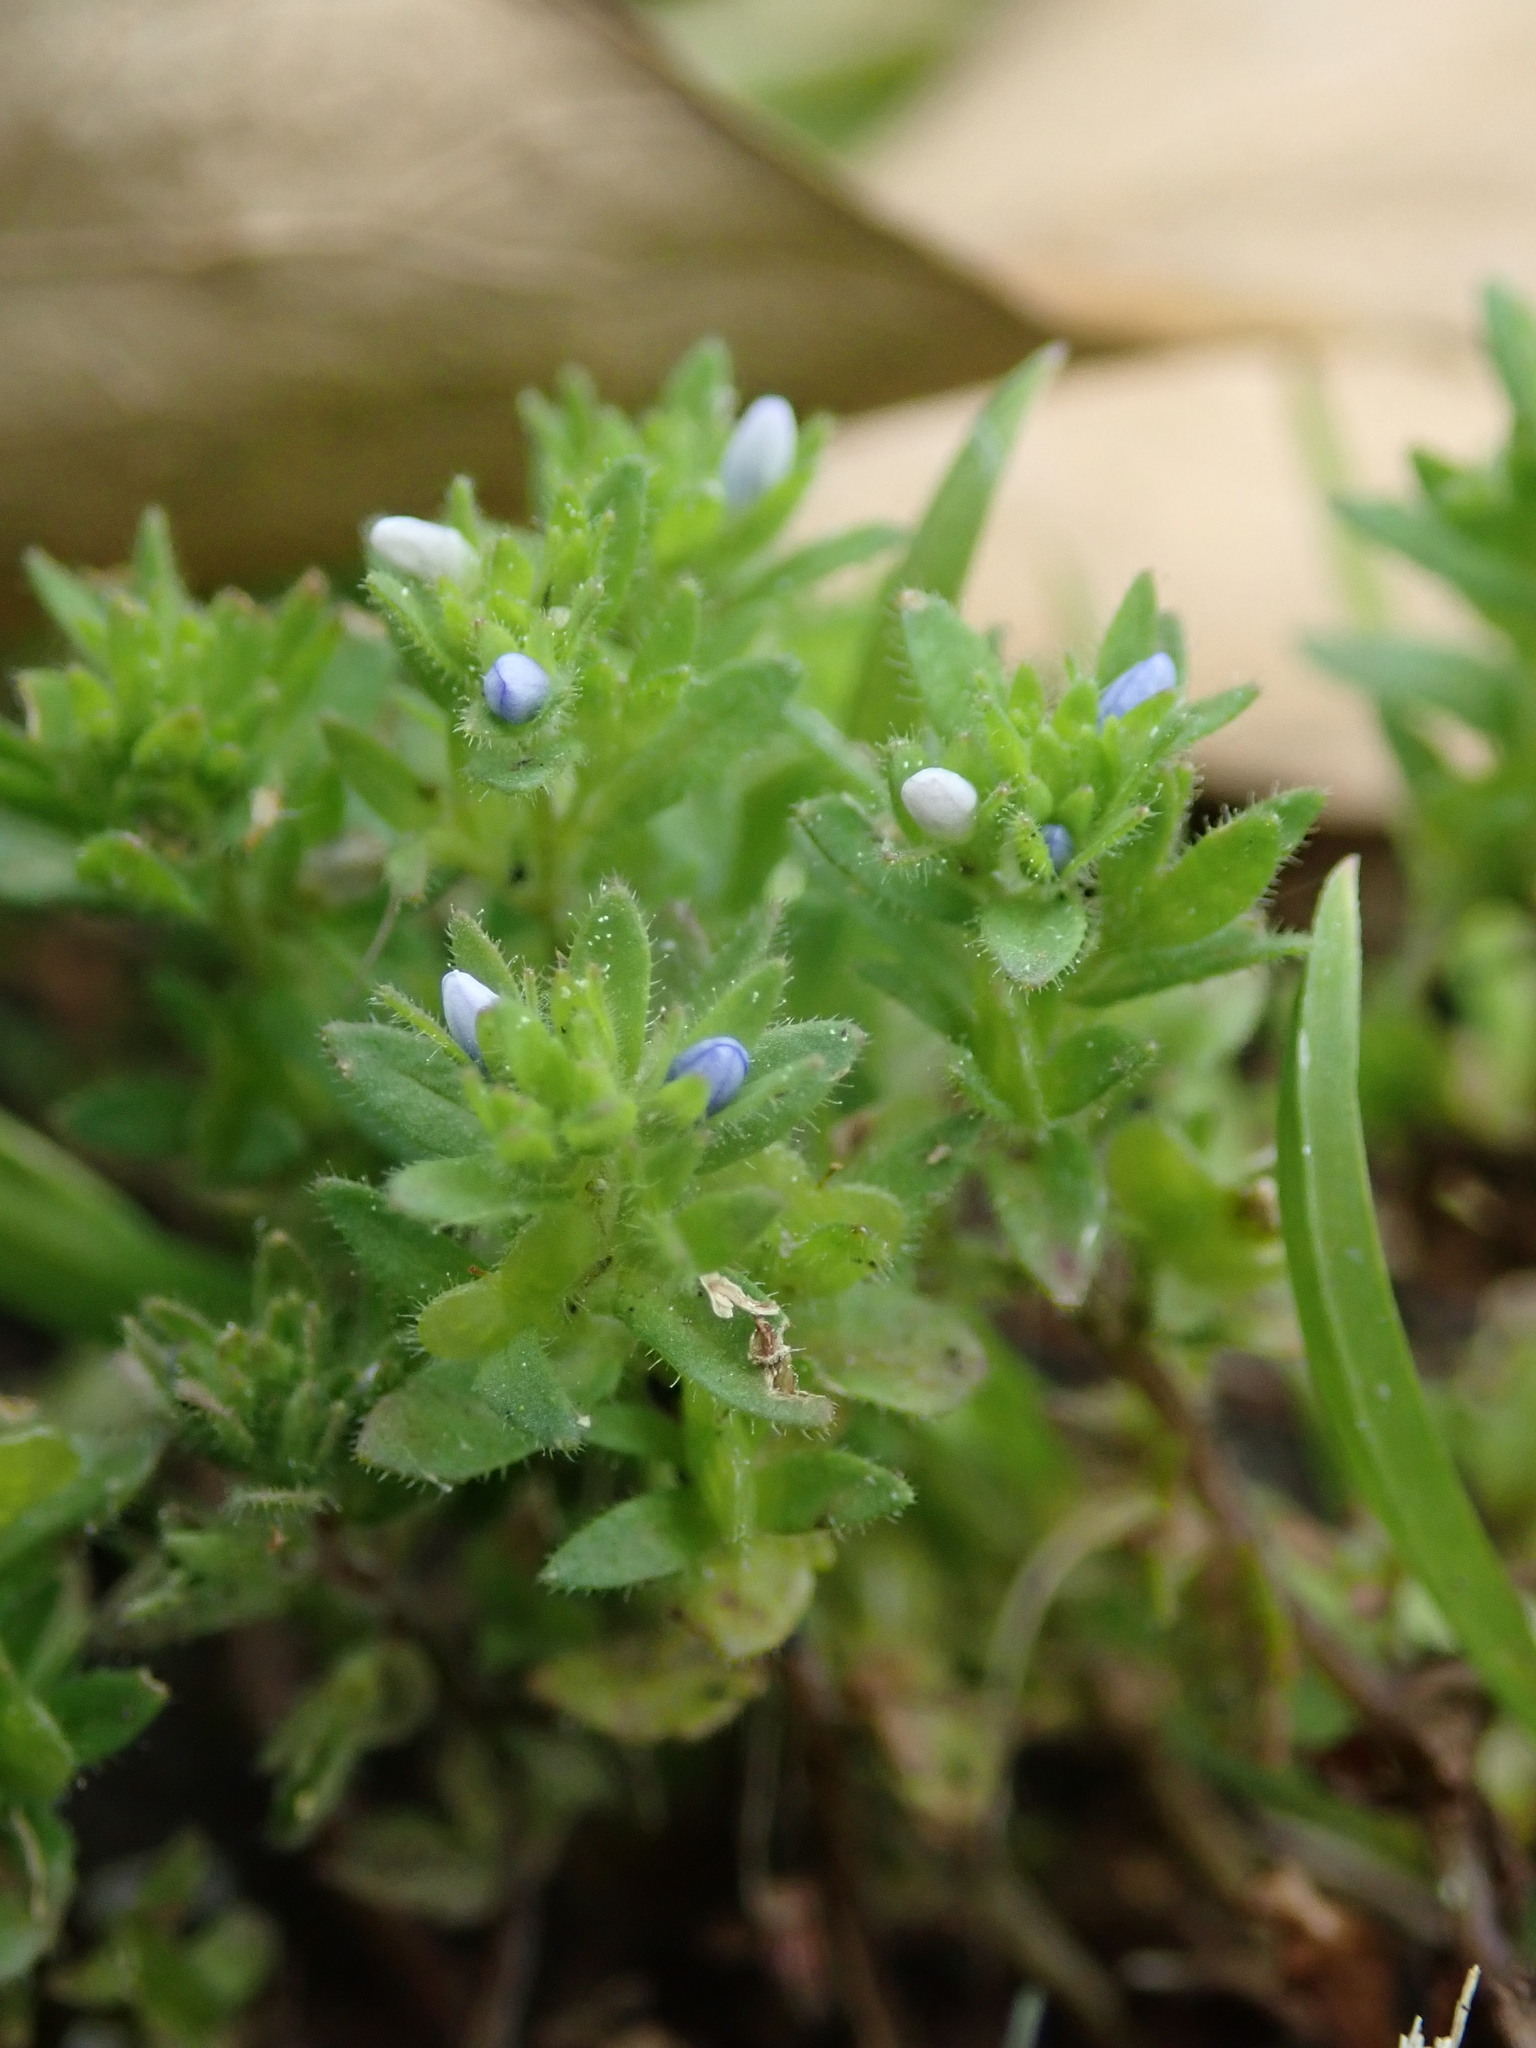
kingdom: Plantae
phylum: Tracheophyta
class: Magnoliopsida
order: Lamiales
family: Plantaginaceae
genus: Veronica
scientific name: Veronica arvensis
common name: Corn speedwell
